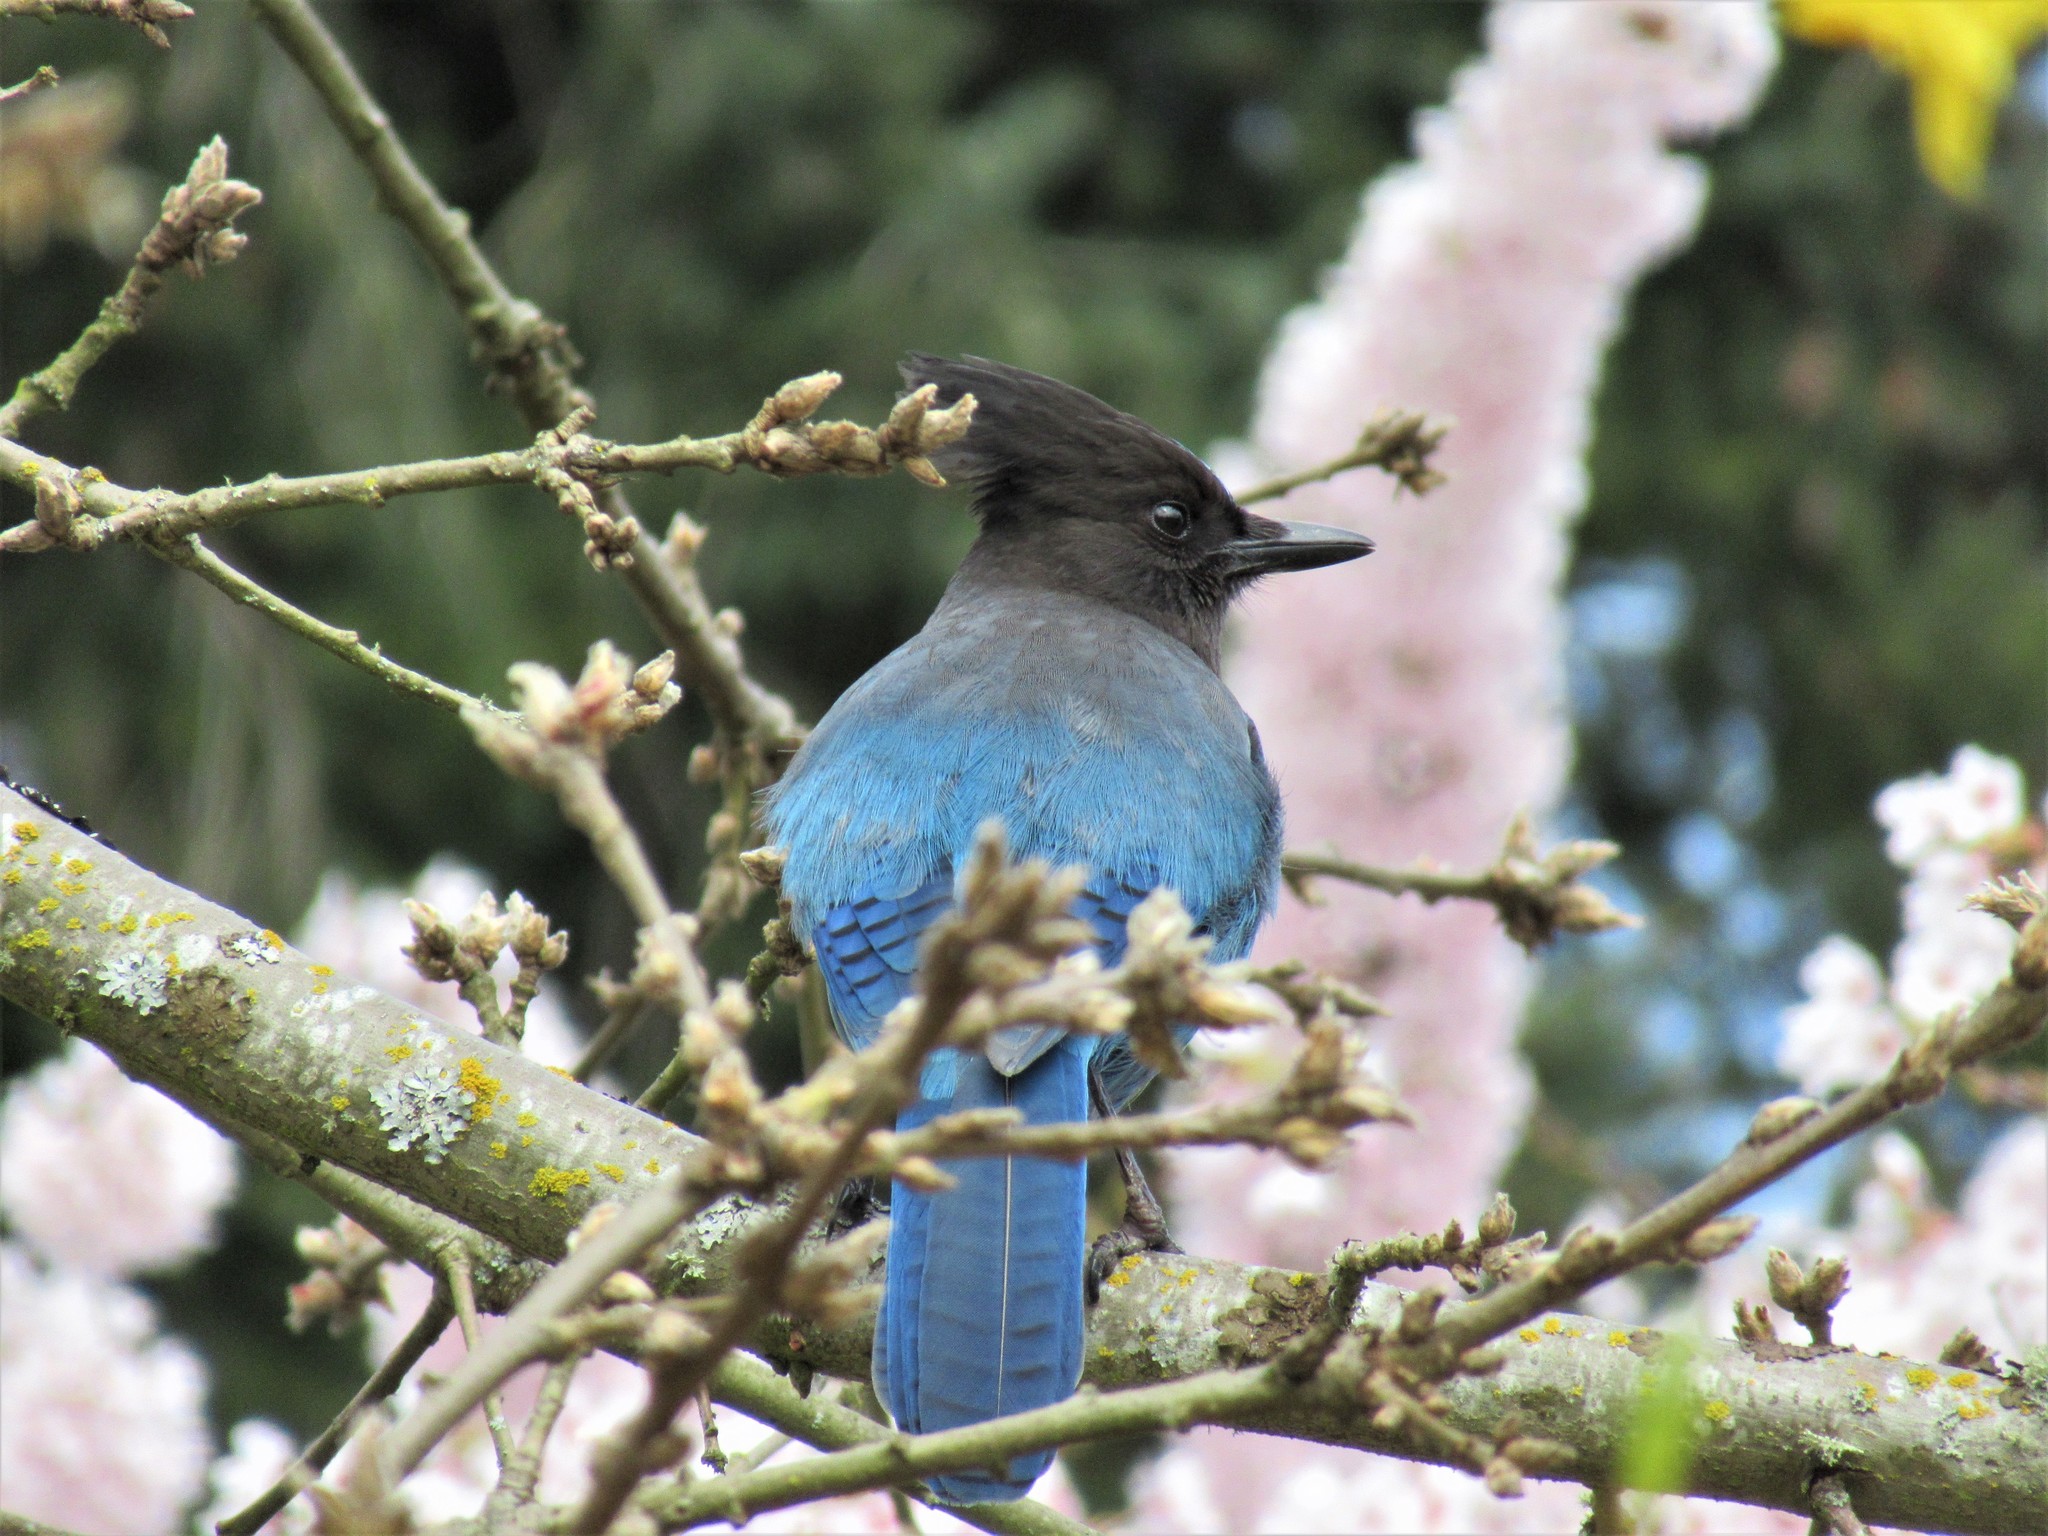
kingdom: Animalia
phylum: Chordata
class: Aves
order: Passeriformes
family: Corvidae
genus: Cyanocitta
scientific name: Cyanocitta stelleri
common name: Steller's jay
